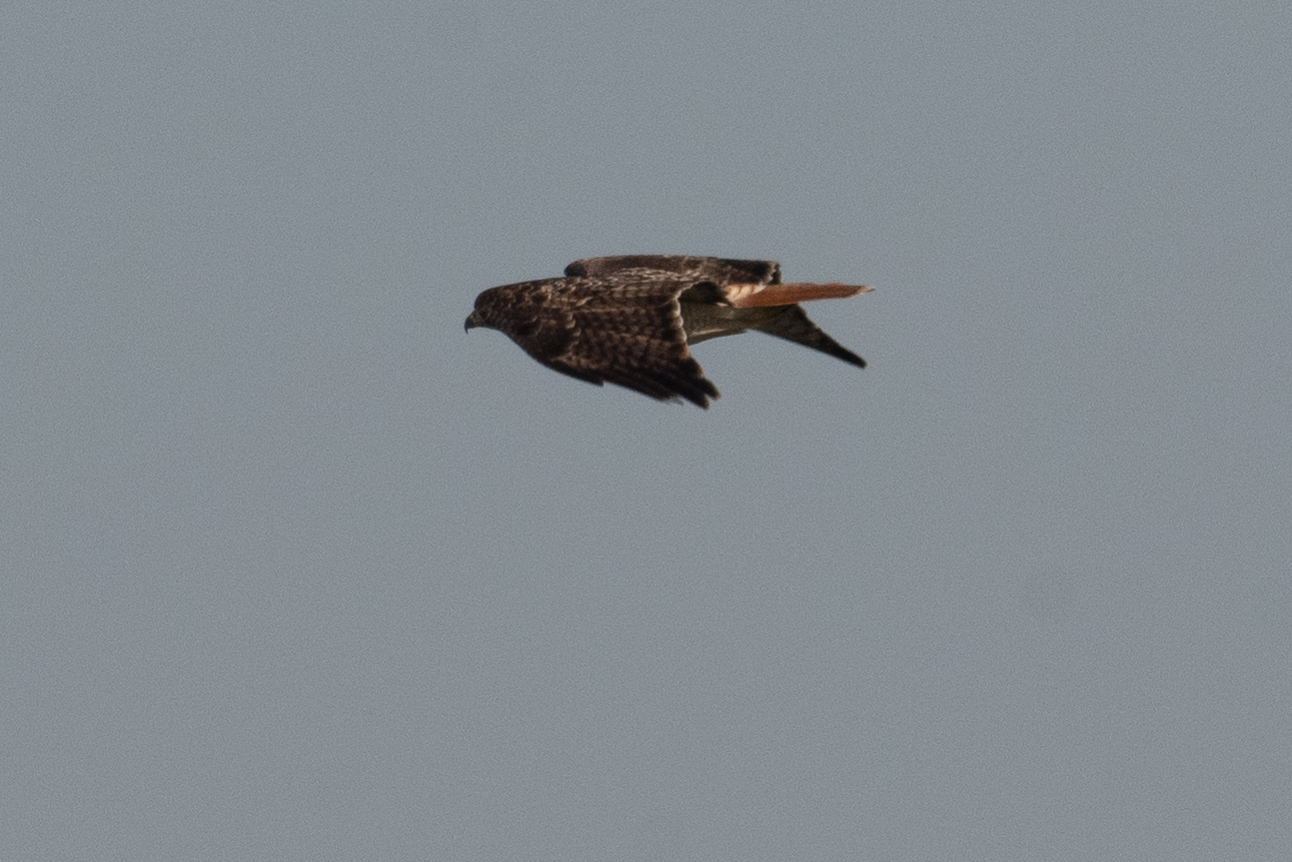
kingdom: Animalia
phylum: Chordata
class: Aves
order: Accipitriformes
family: Accipitridae
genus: Buteo
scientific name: Buteo jamaicensis
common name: Red-tailed hawk
